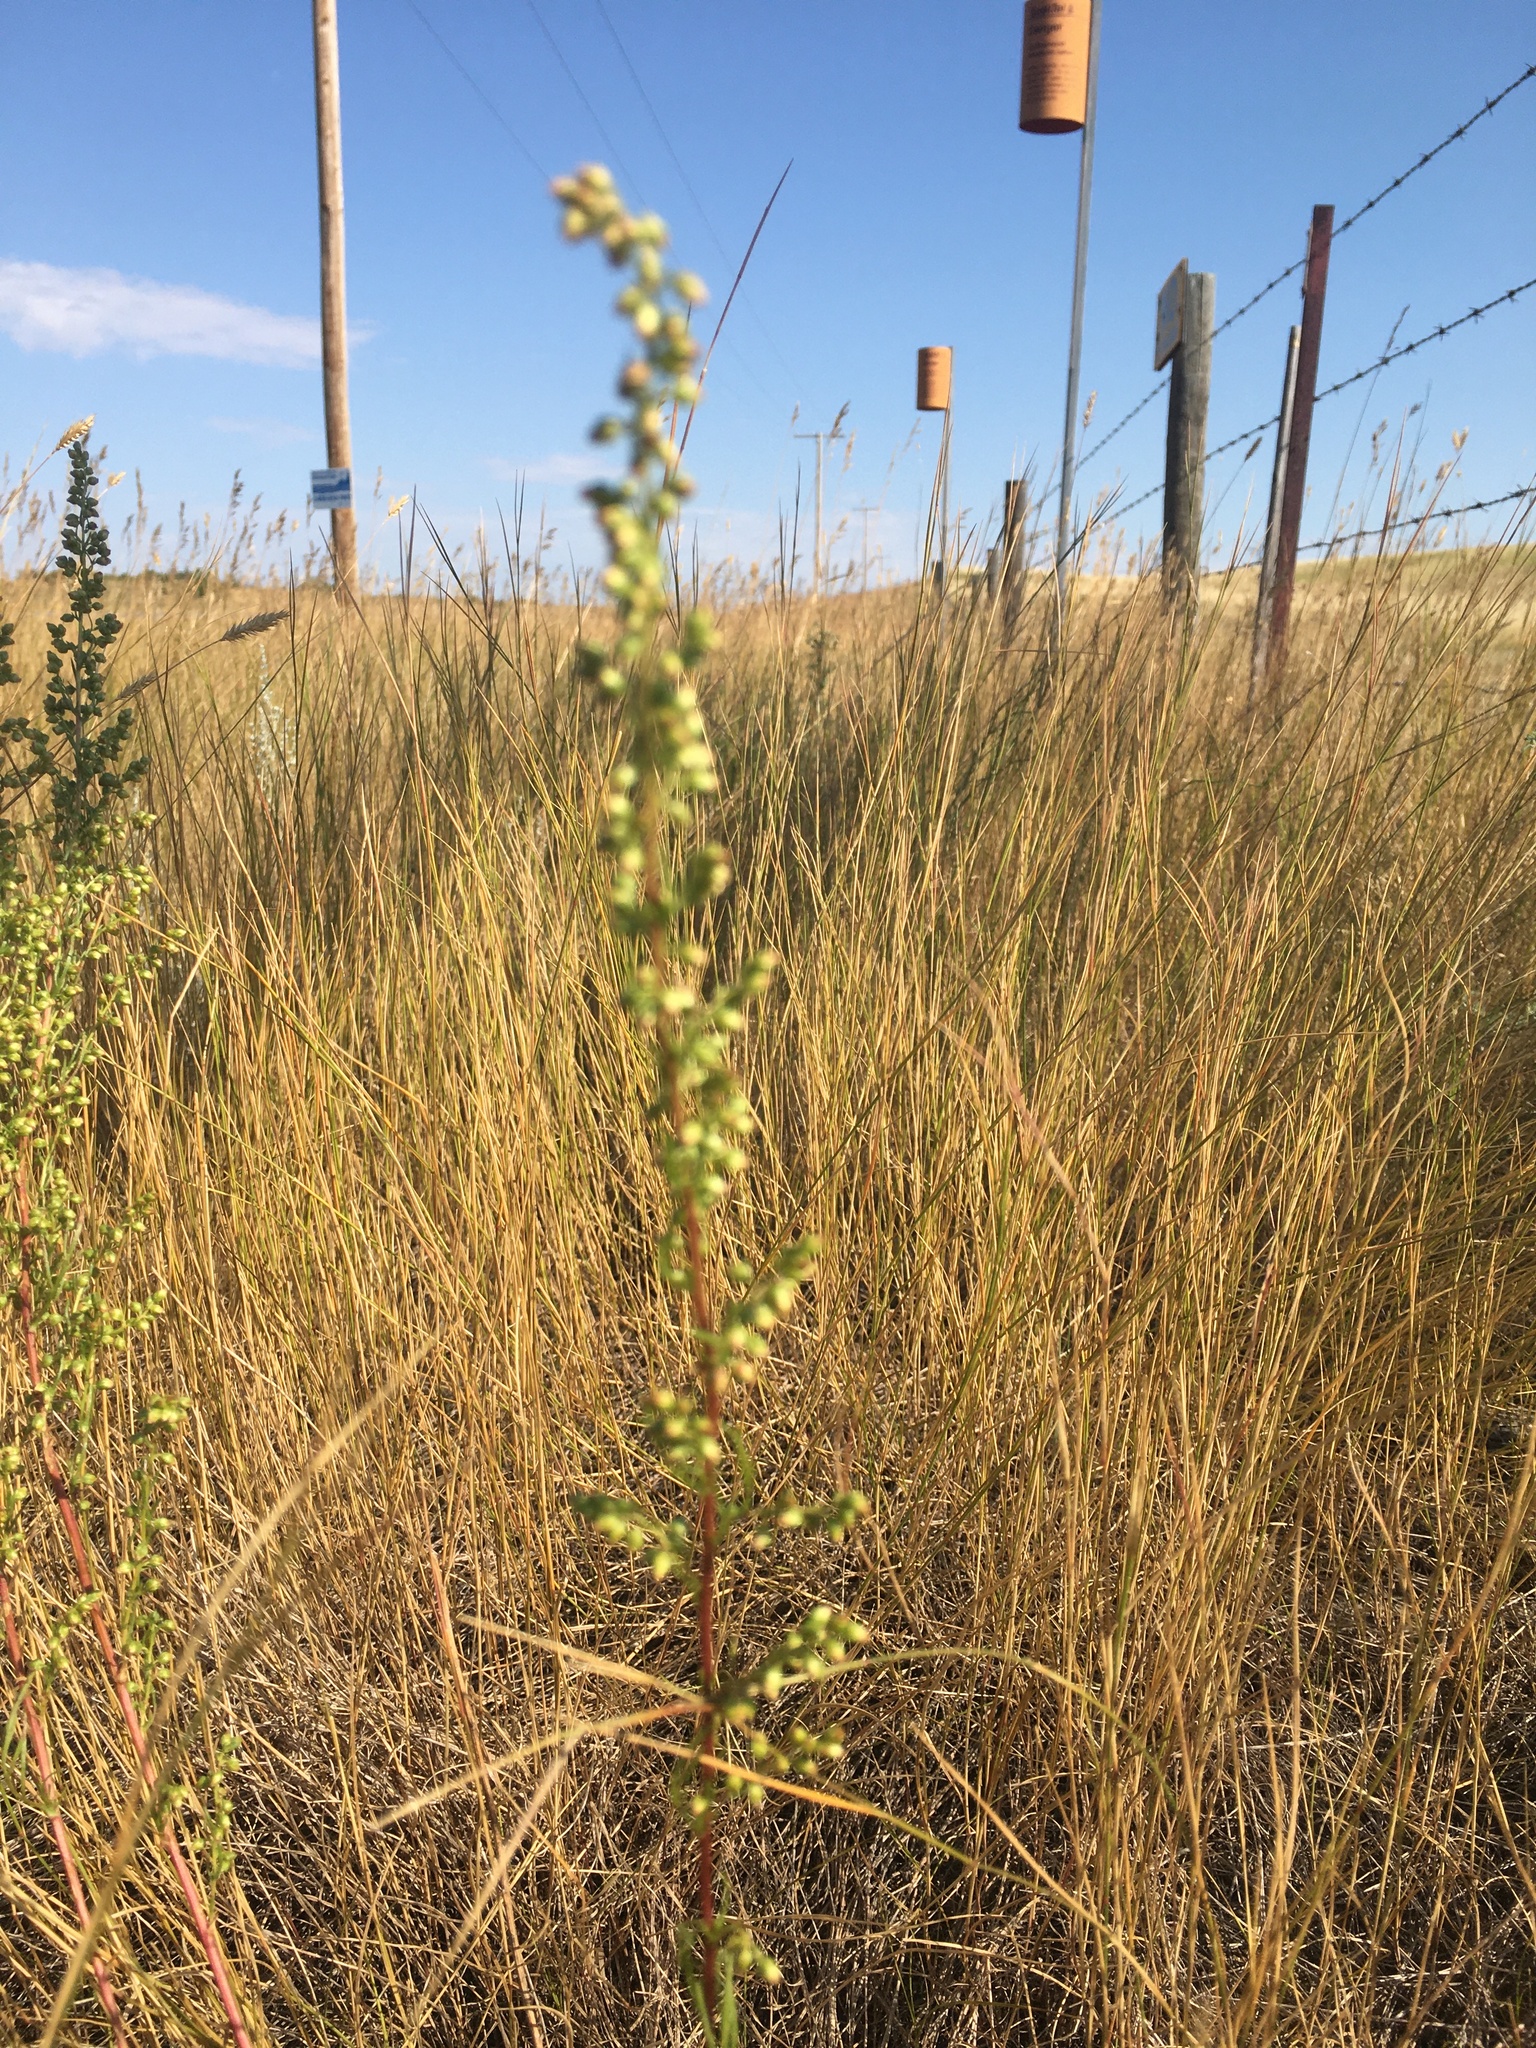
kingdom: Plantae
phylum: Tracheophyta
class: Magnoliopsida
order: Asterales
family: Asteraceae
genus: Artemisia
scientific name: Artemisia campestris
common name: Field wormwood
